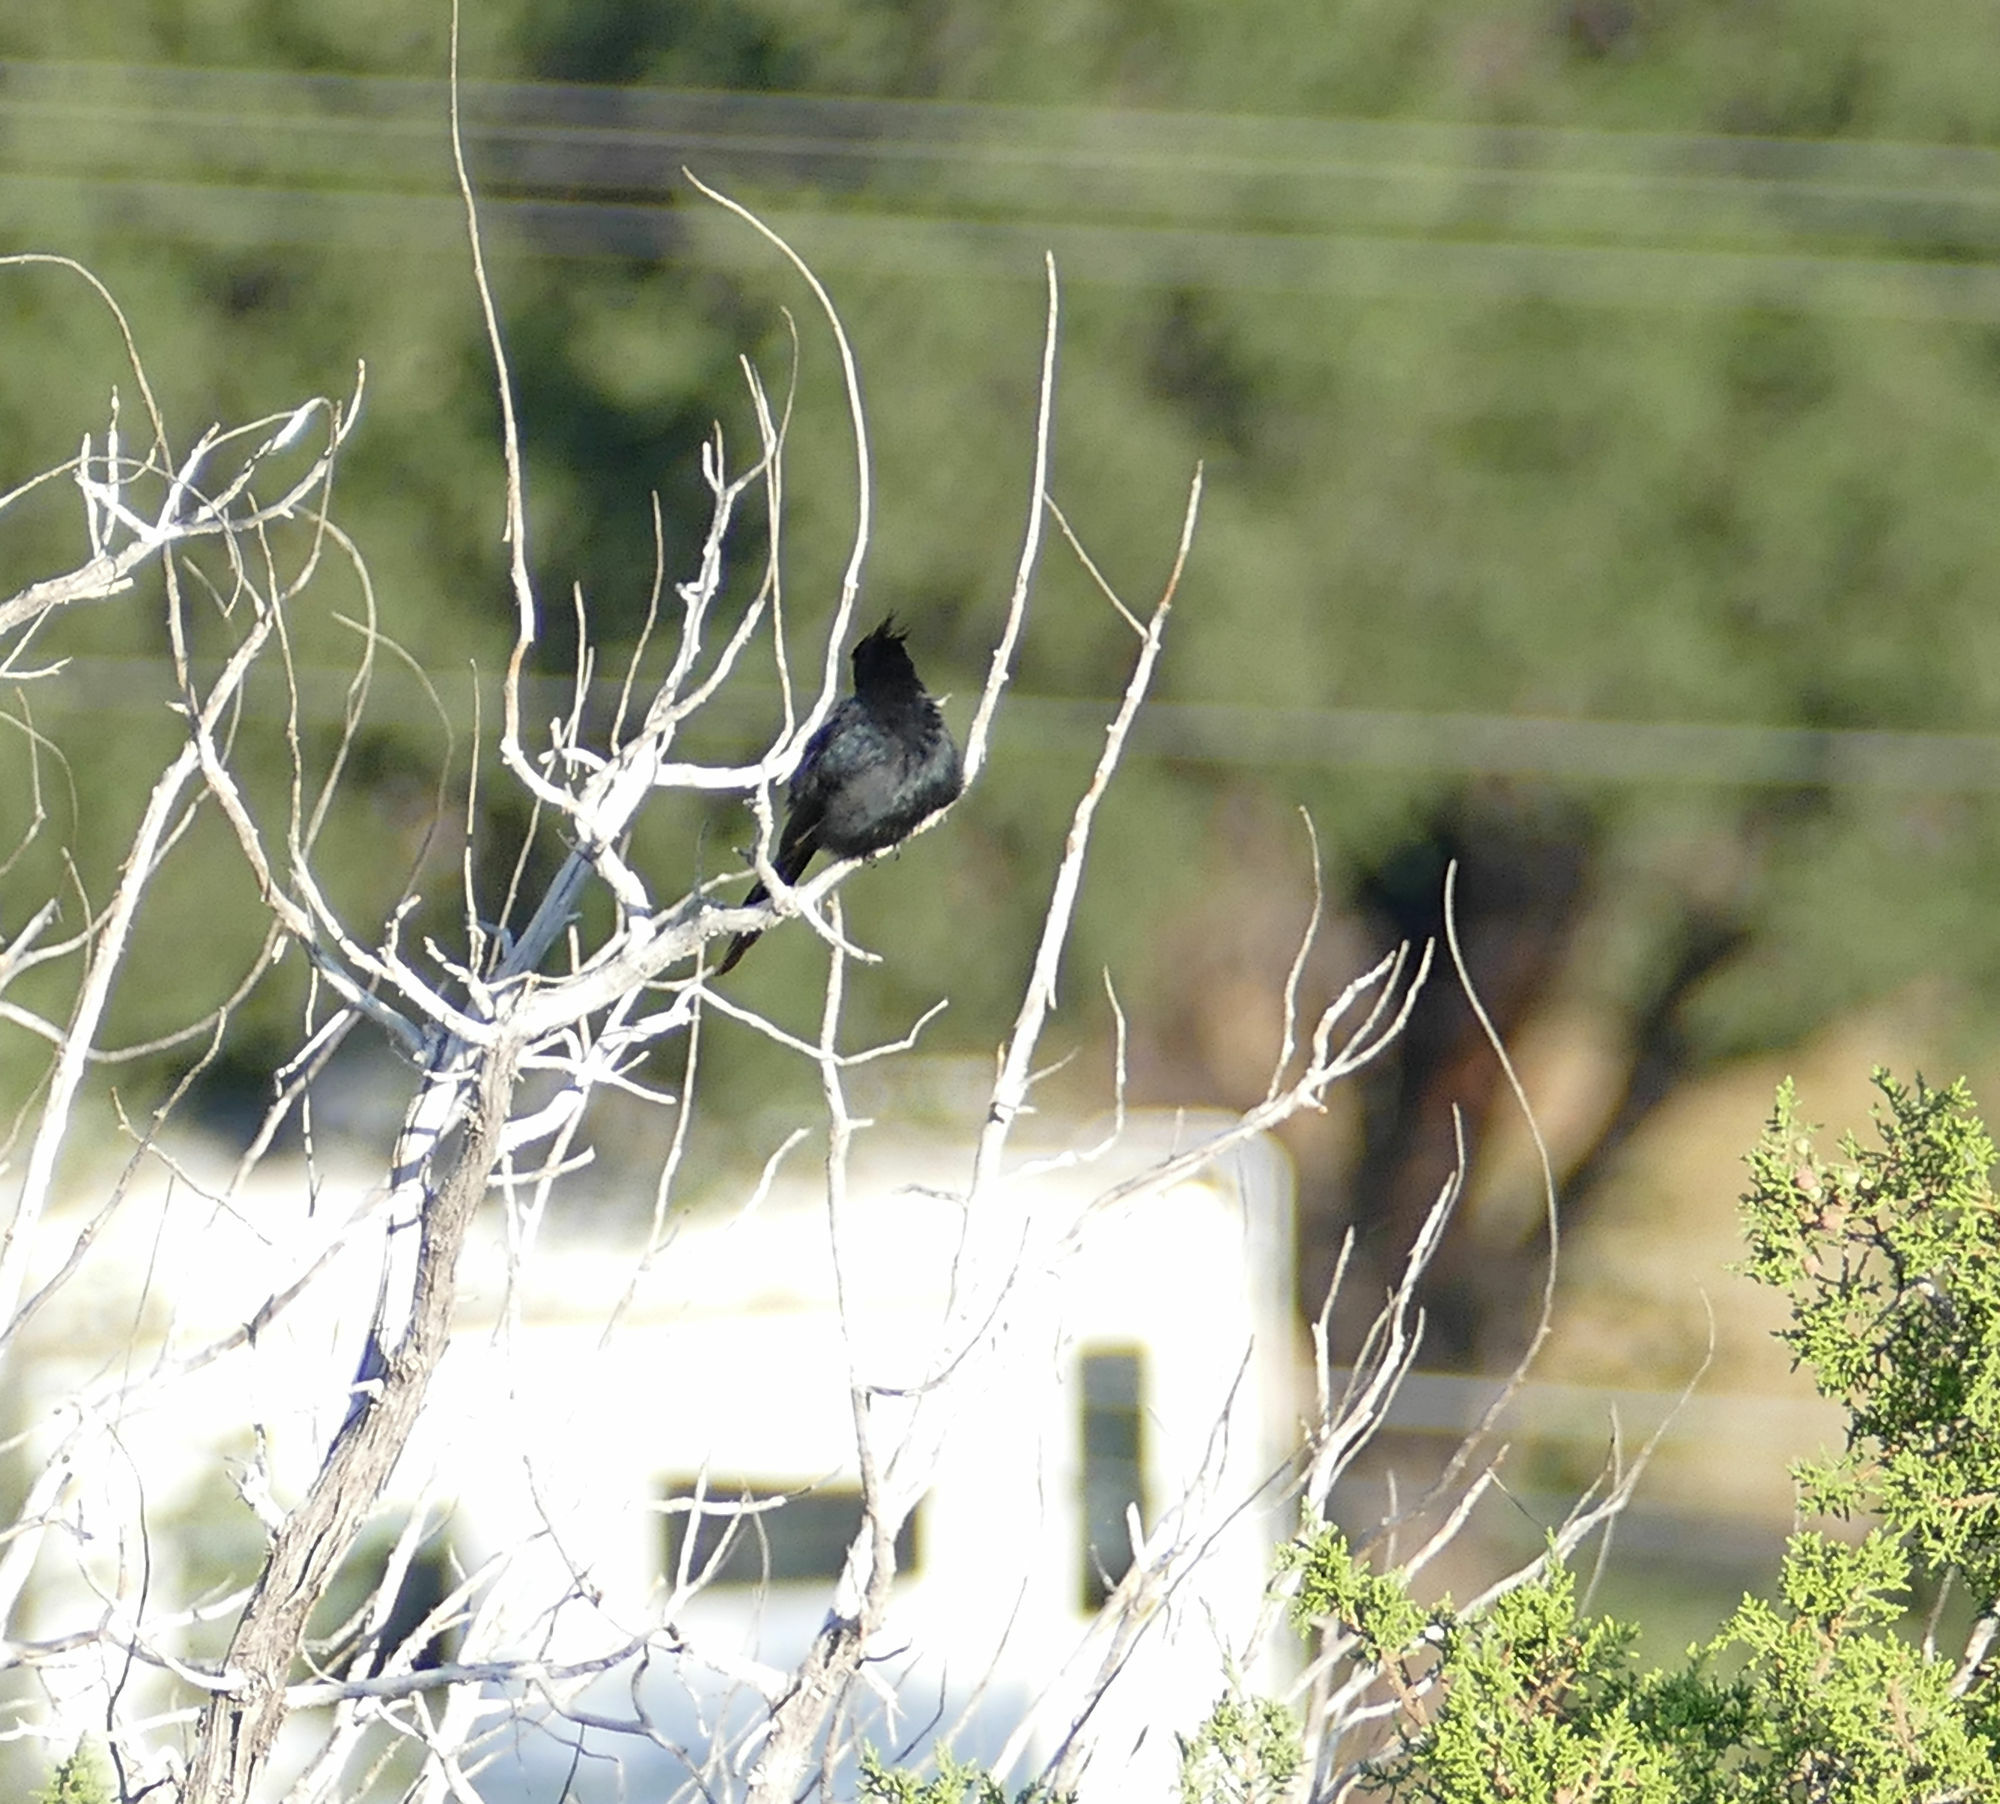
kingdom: Animalia
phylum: Chordata
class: Aves
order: Passeriformes
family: Ptilogonatidae
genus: Phainopepla
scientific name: Phainopepla nitens
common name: Phainopepla
